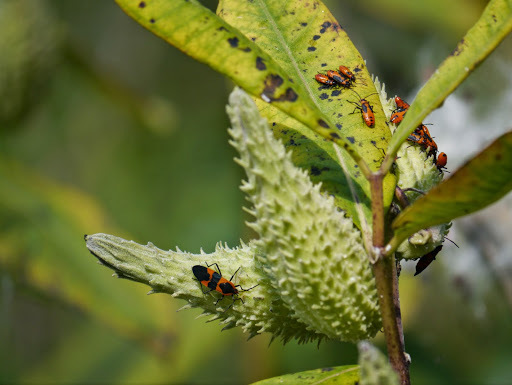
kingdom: Animalia
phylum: Arthropoda
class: Insecta
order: Hemiptera
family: Lygaeidae
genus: Oncopeltus
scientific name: Oncopeltus fasciatus
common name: Large milkweed bug
